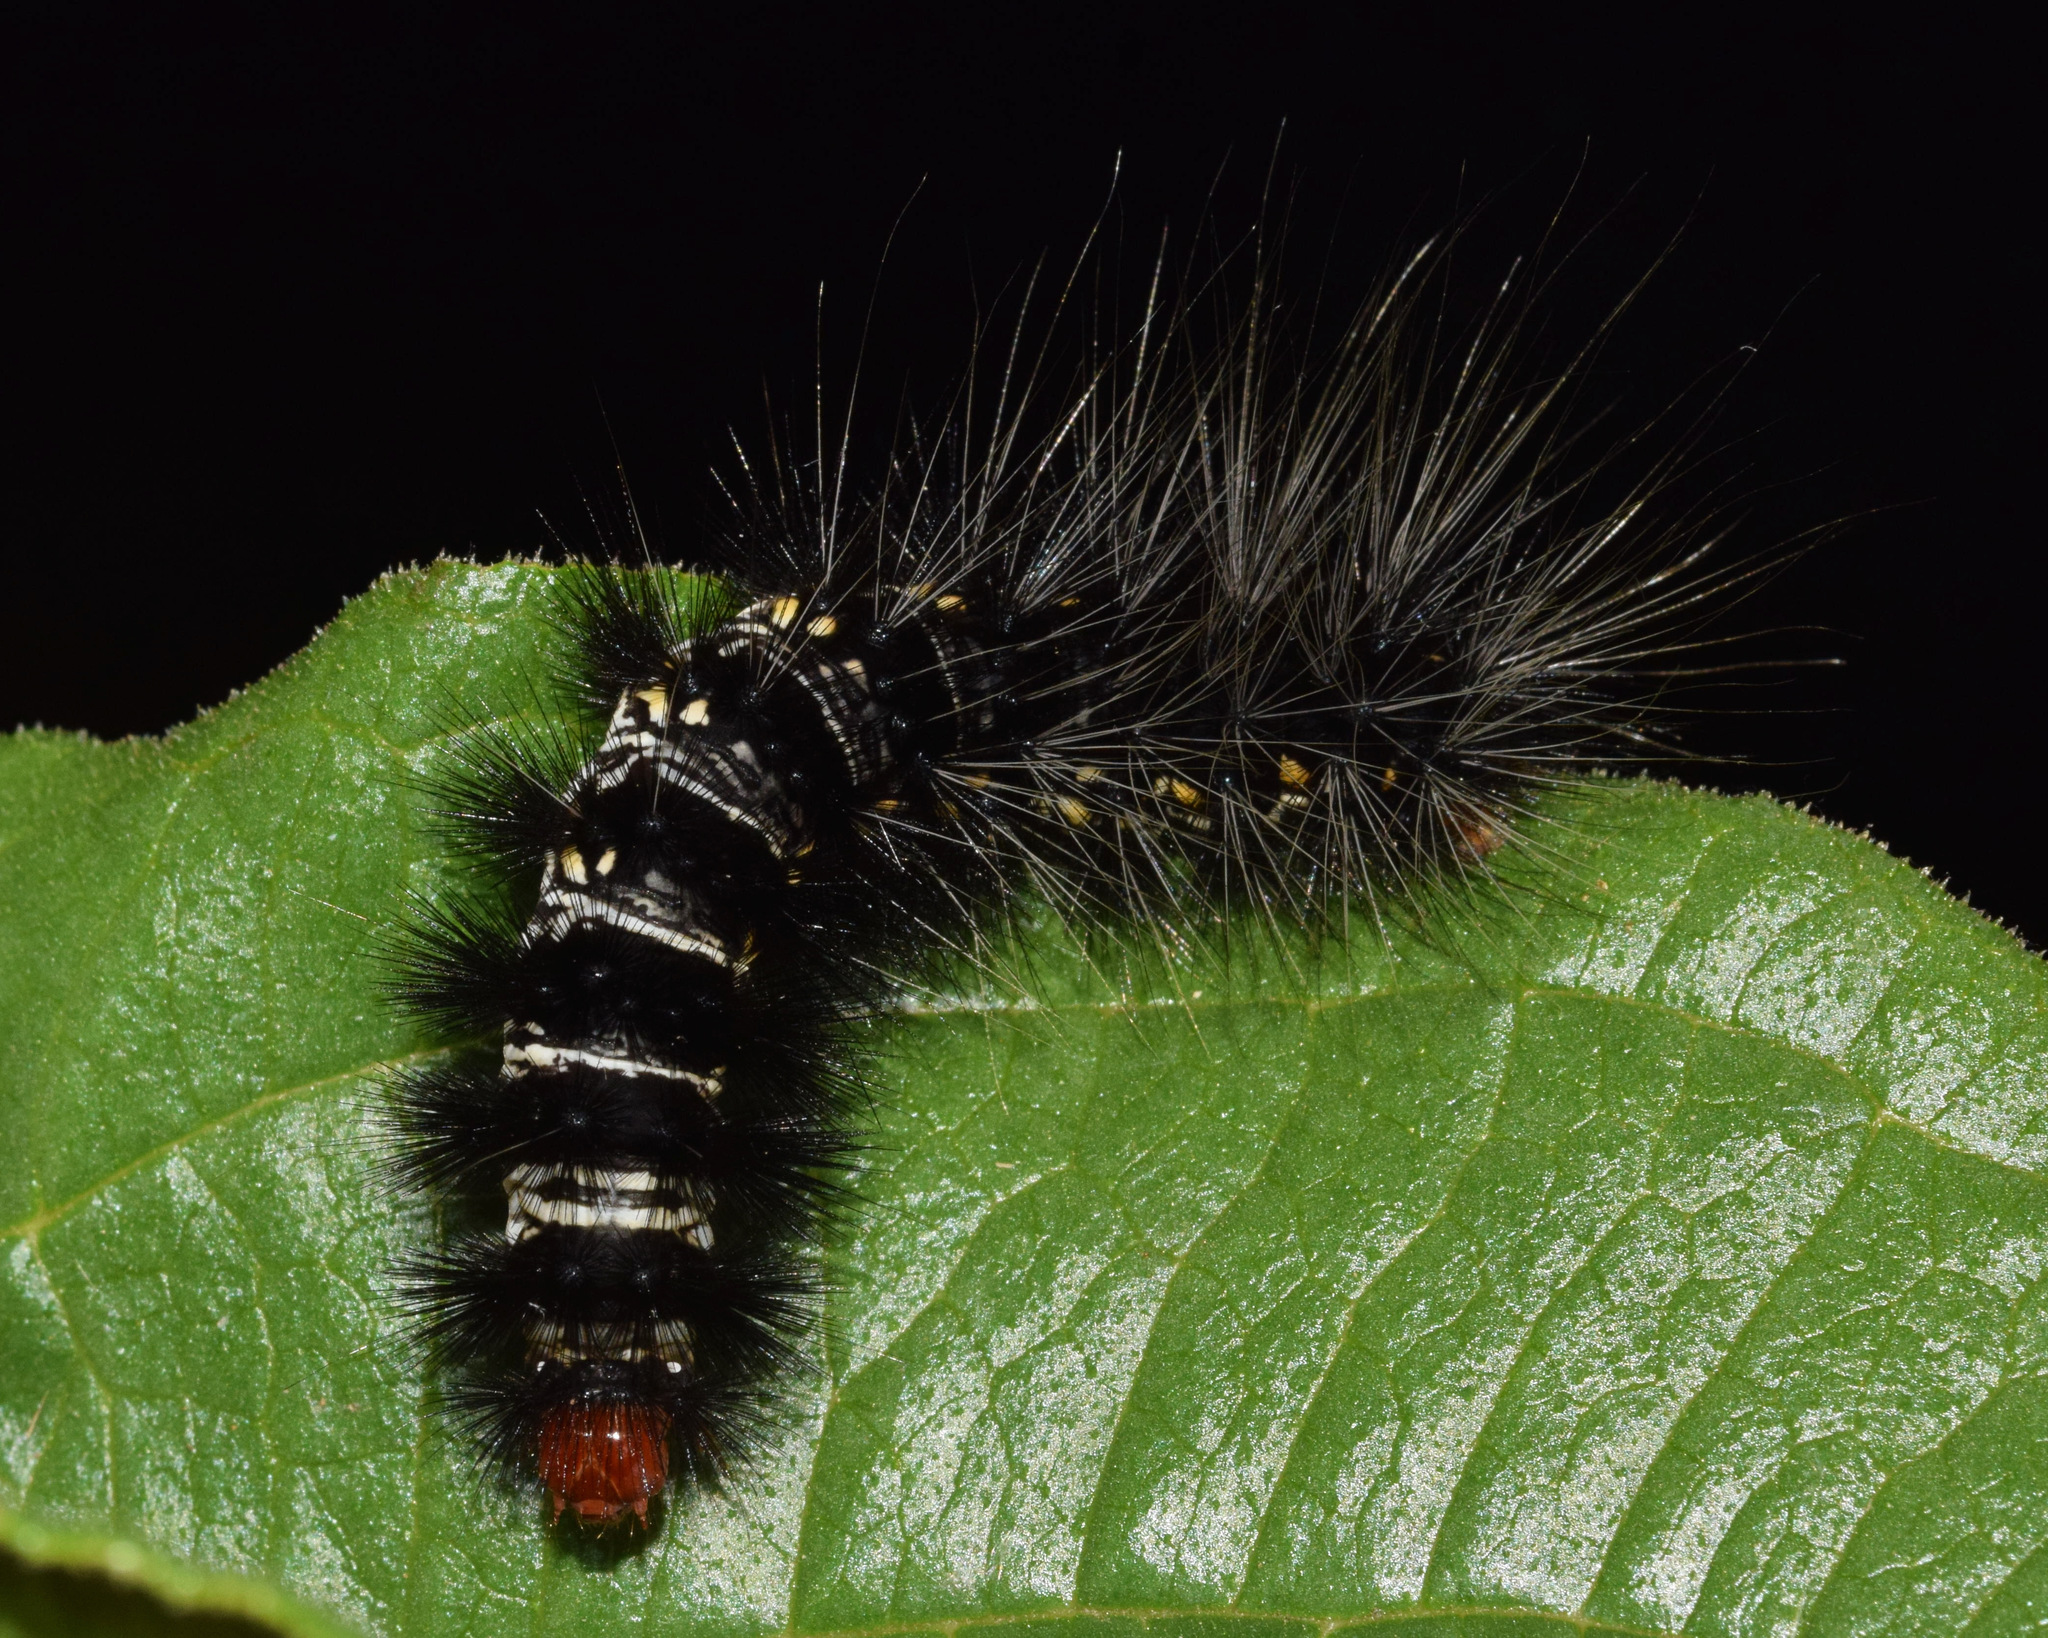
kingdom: Animalia
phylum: Arthropoda
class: Insecta
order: Lepidoptera
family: Erebidae
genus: Afromurzinia
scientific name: Afromurzinia lutescens
